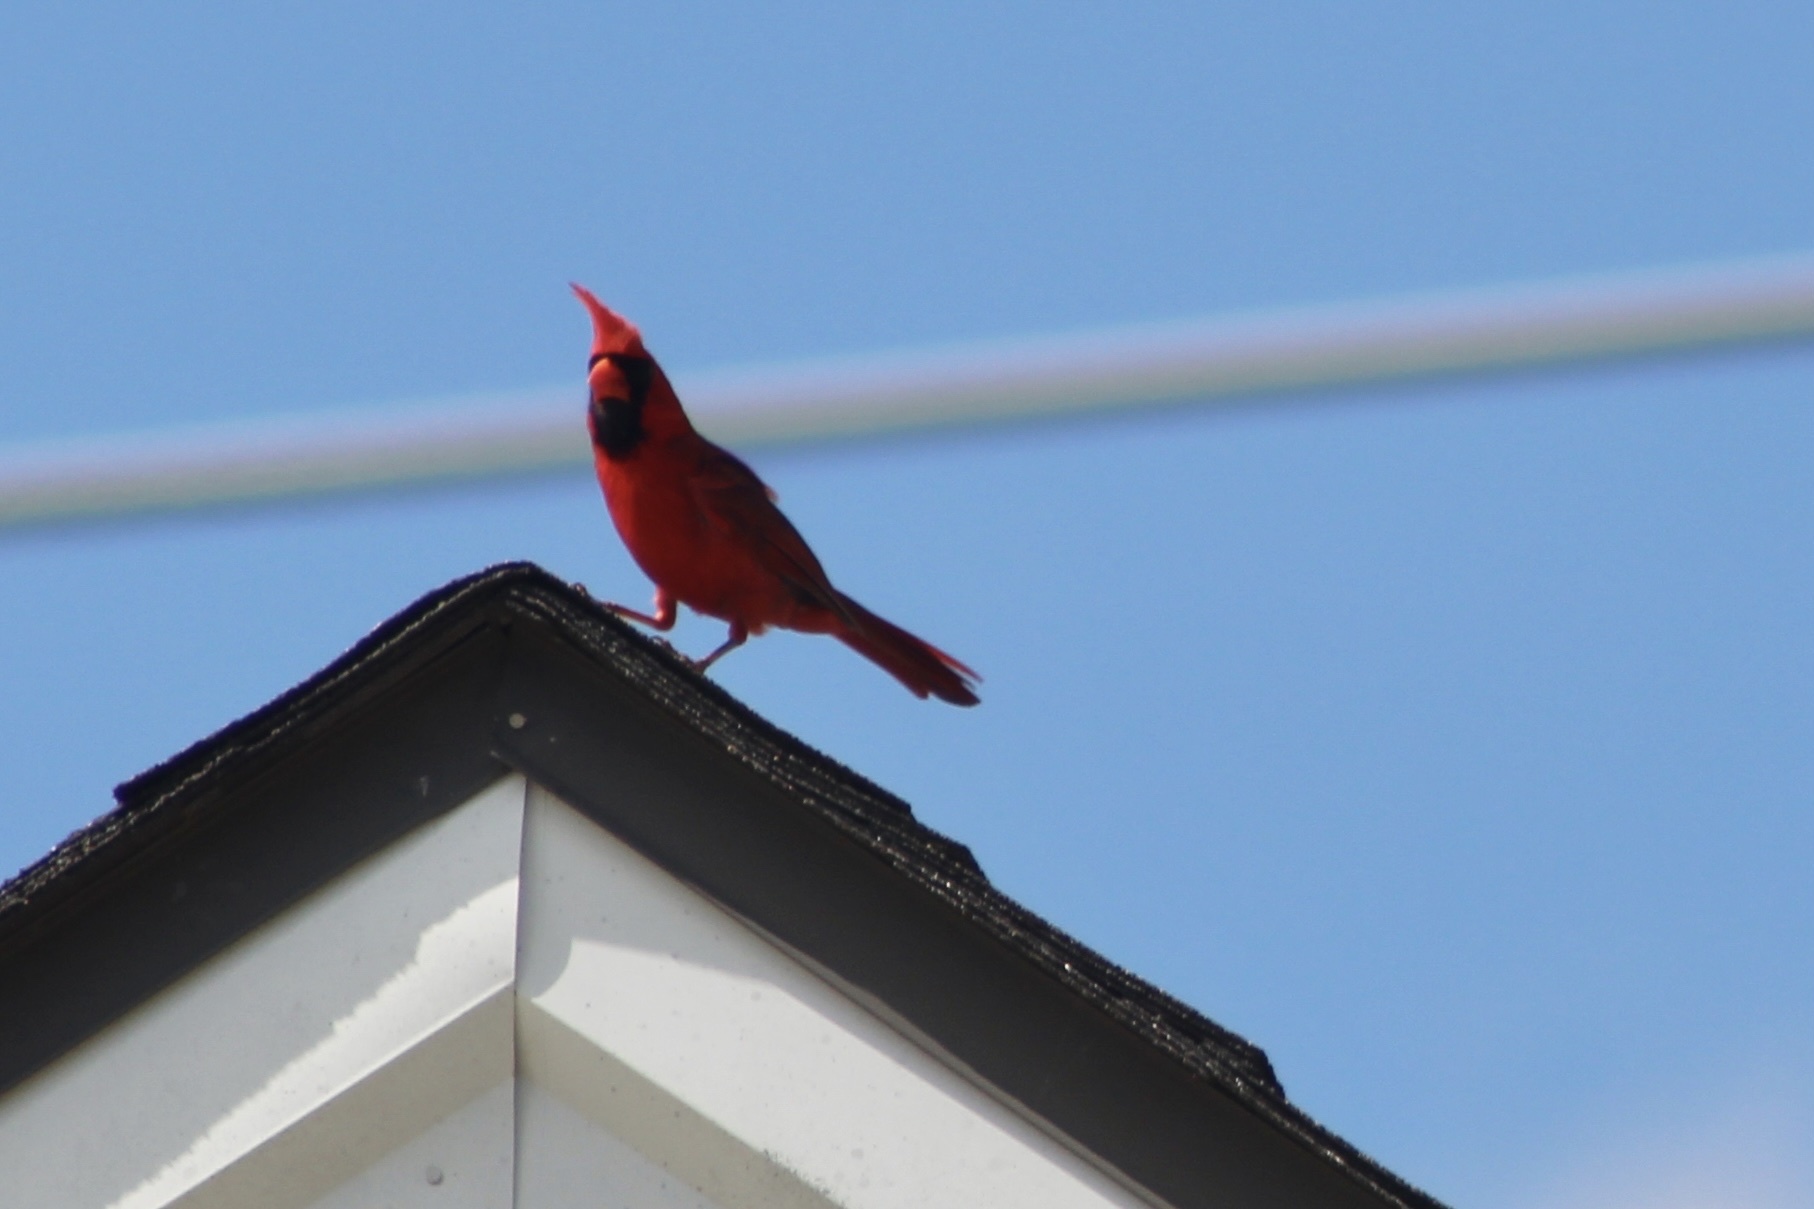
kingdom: Animalia
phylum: Chordata
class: Aves
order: Passeriformes
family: Cardinalidae
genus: Cardinalis
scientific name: Cardinalis cardinalis
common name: Northern cardinal
